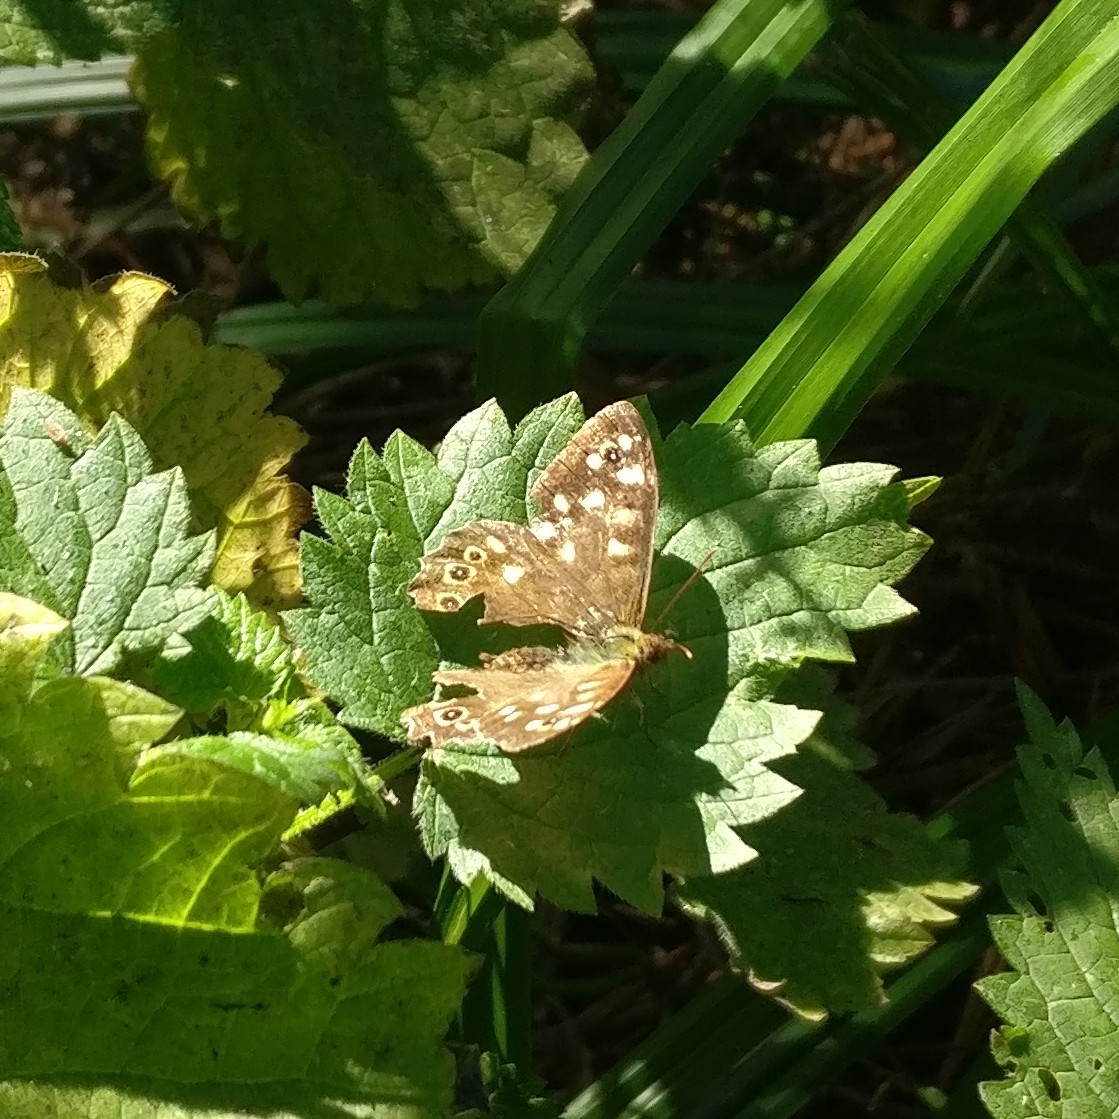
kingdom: Animalia
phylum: Arthropoda
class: Insecta
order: Lepidoptera
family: Nymphalidae
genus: Pararge
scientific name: Pararge aegeria
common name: Speckled wood
